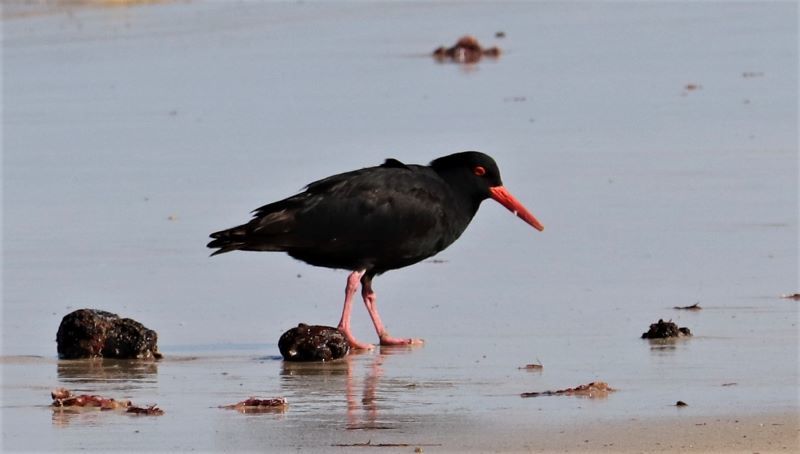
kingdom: Animalia
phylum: Chordata
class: Aves
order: Charadriiformes
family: Haematopodidae
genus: Haematopus
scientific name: Haematopus moquini
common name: African oystercatcher
